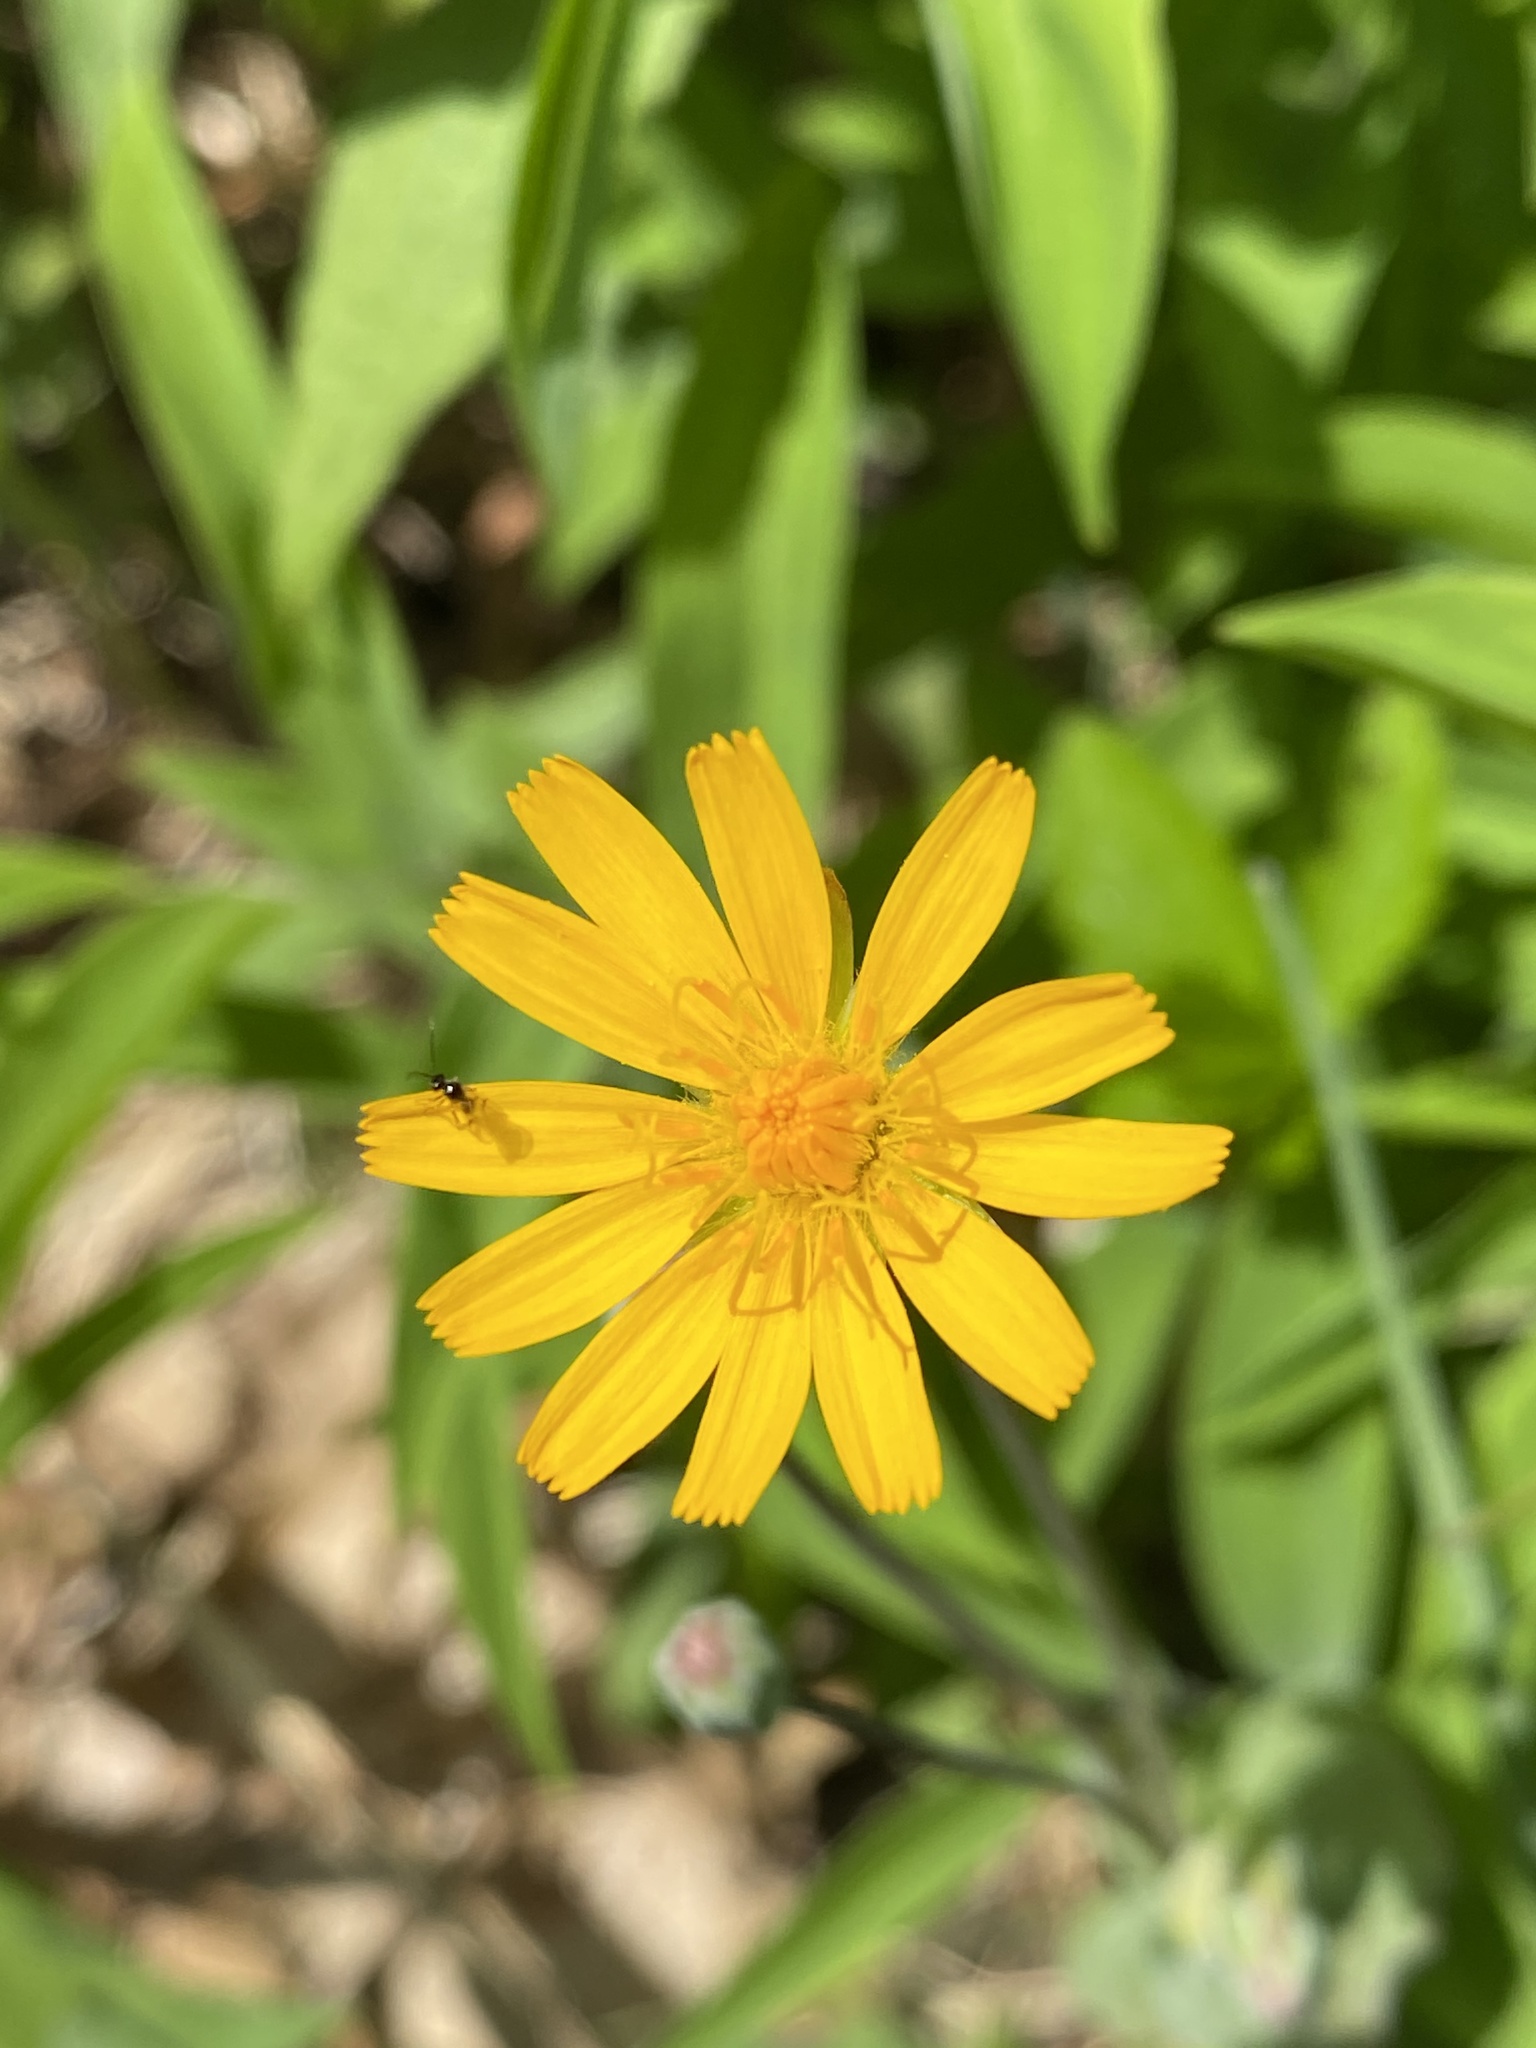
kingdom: Plantae
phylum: Tracheophyta
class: Magnoliopsida
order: Asterales
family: Asteraceae
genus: Krigia
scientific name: Krigia biflora
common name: Orange dwarf-dandelion
